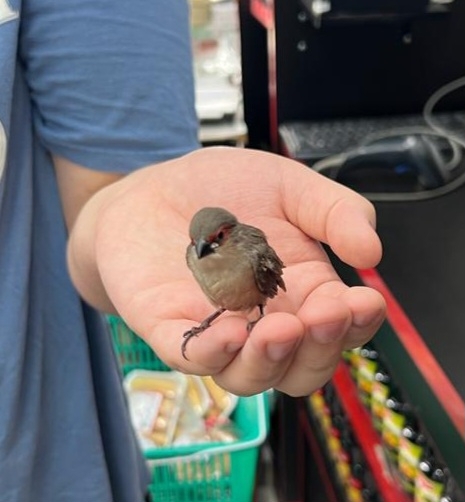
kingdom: Animalia
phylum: Chordata
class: Aves
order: Passeriformes
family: Estrildidae
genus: Estrilda
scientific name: Estrilda astrild
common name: Common waxbill
